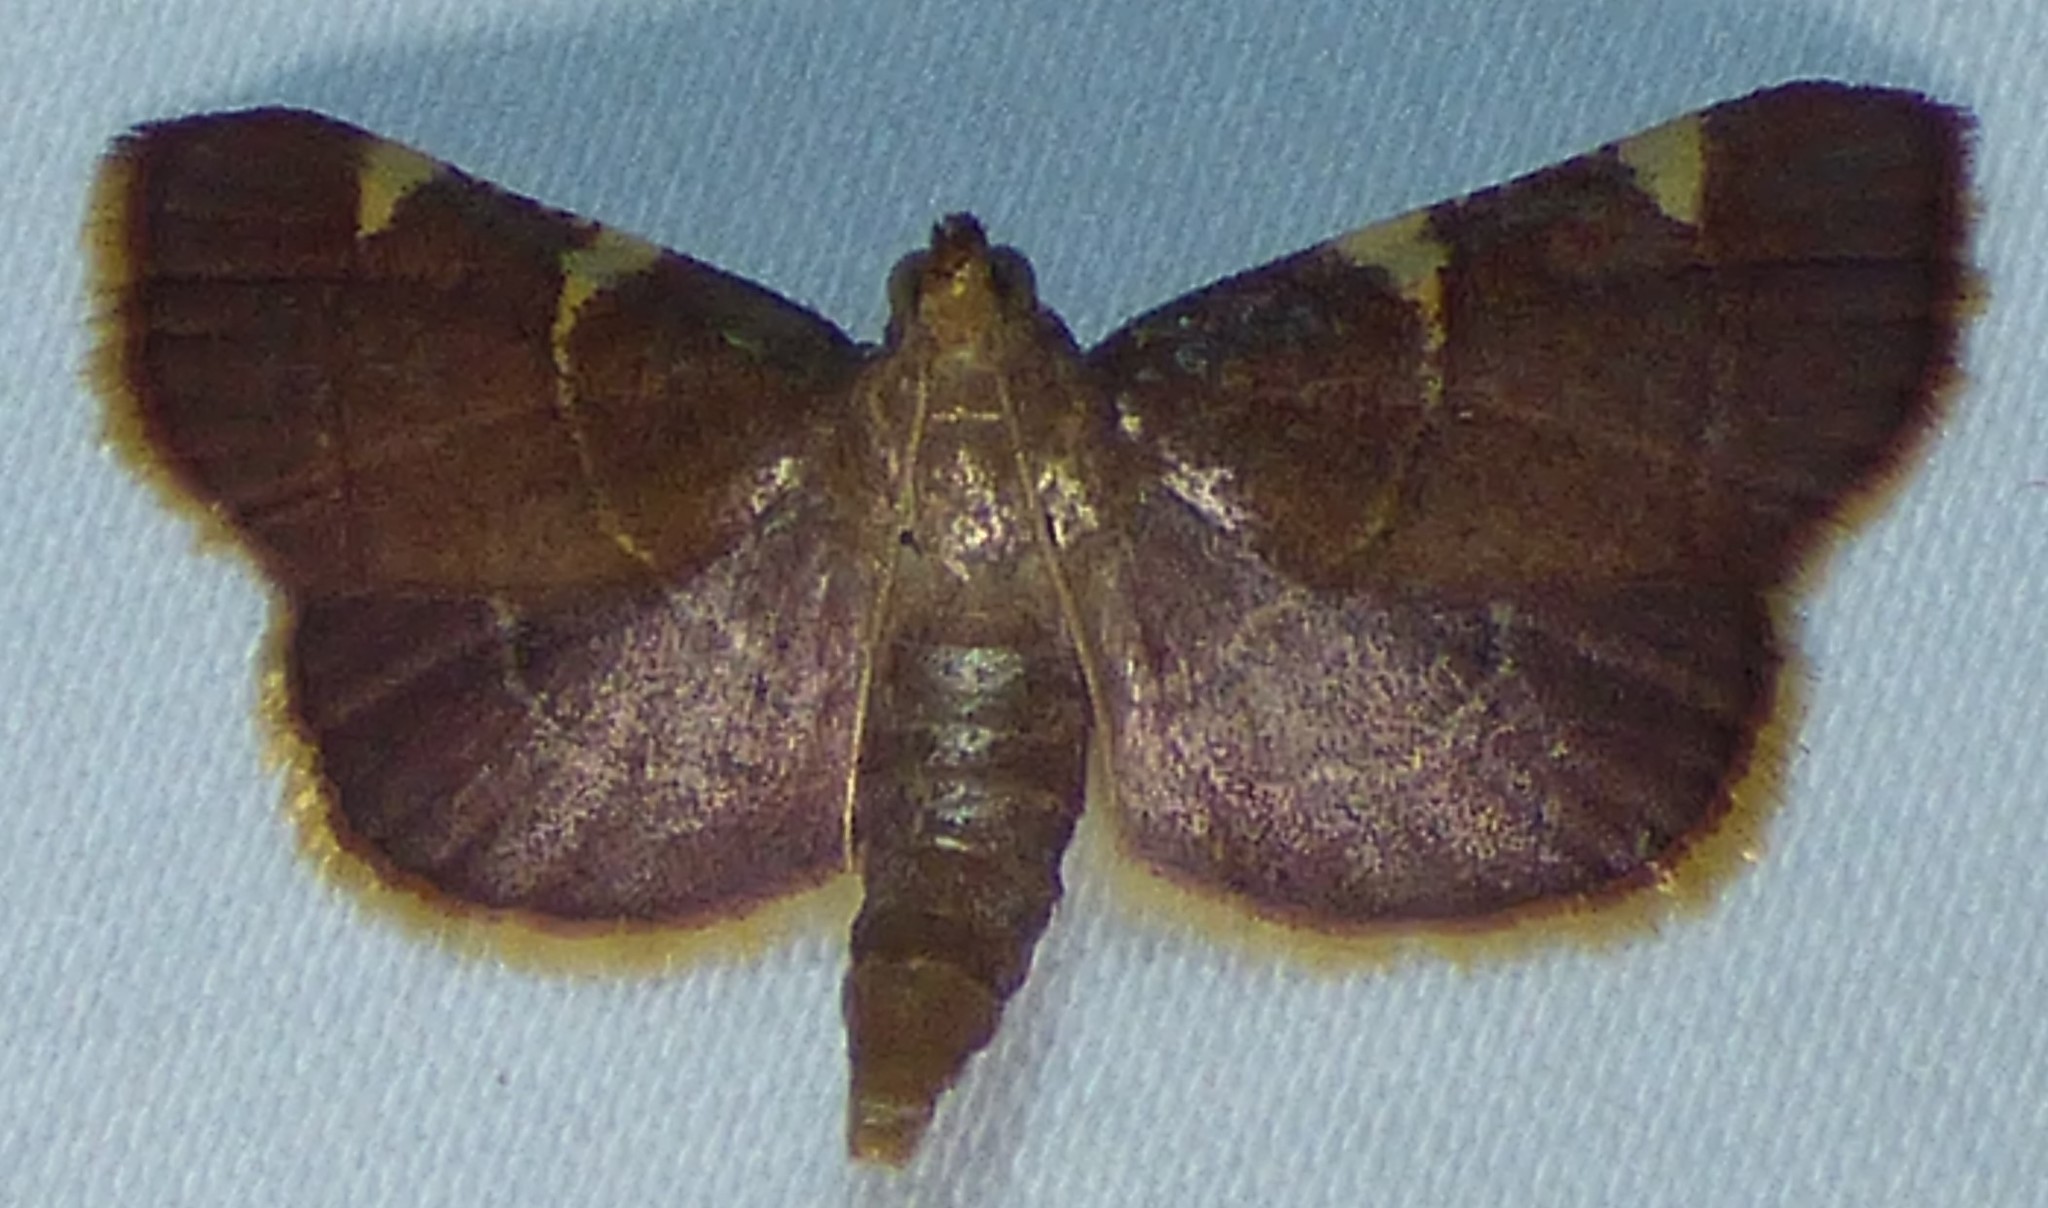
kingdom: Animalia
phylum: Arthropoda
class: Insecta
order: Lepidoptera
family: Pyralidae
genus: Hypsopygia
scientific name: Hypsopygia olinalis
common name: Yellow-fringed dolichomia moth
